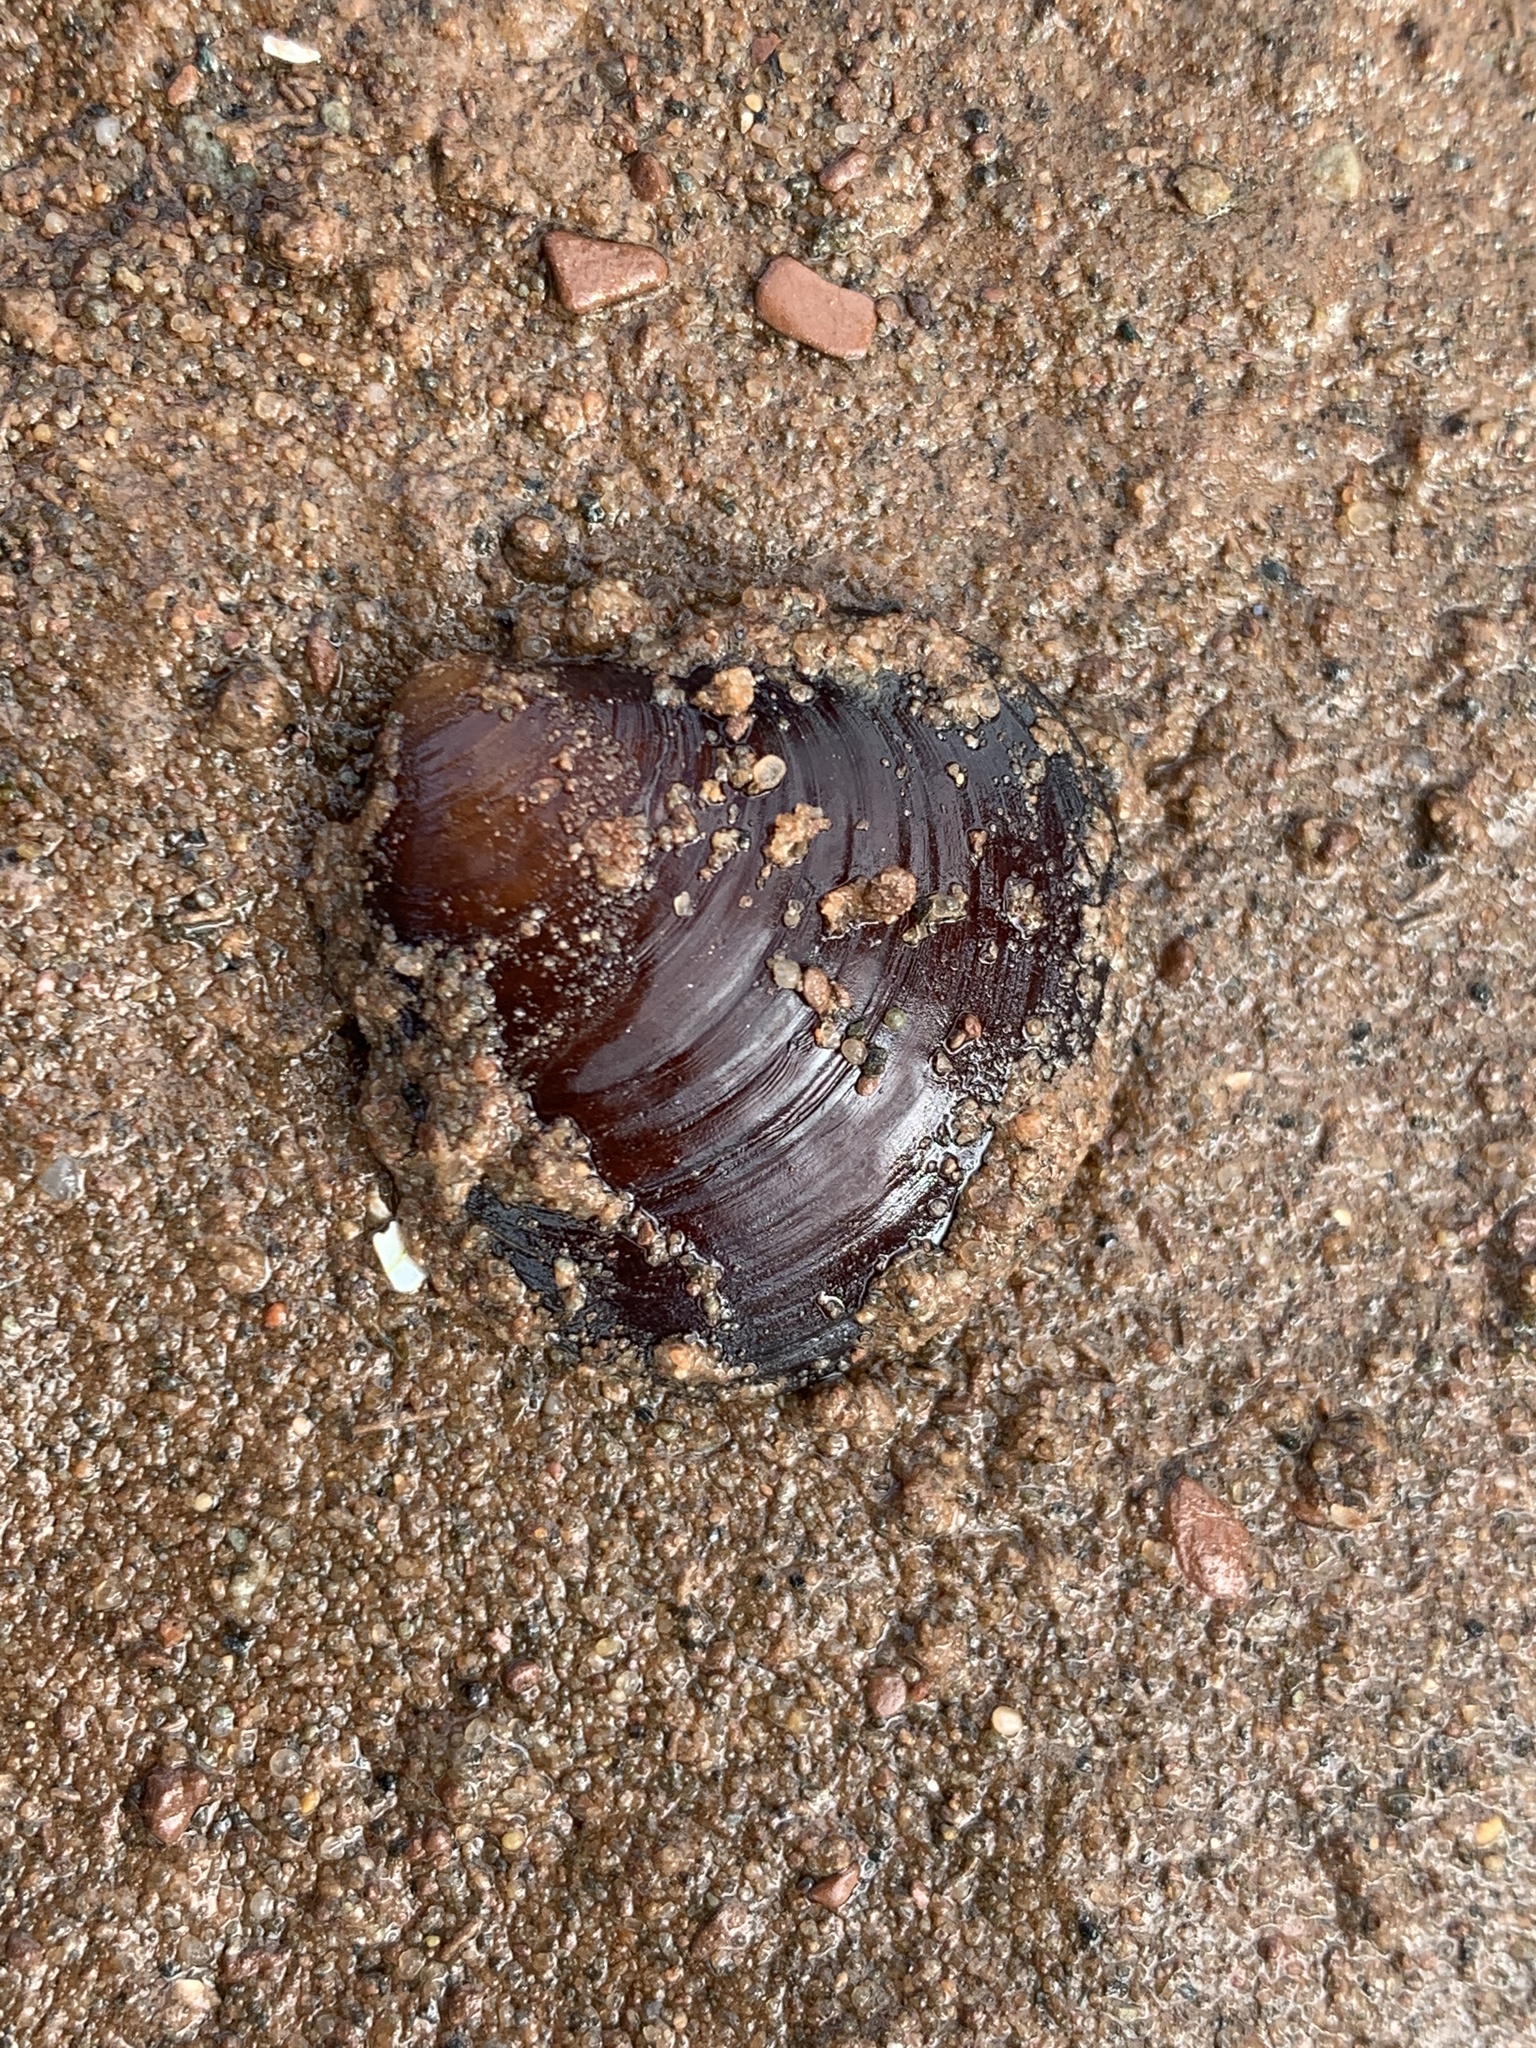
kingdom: Animalia
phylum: Mollusca
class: Bivalvia
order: Carditida
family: Astartidae
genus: Astarte
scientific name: Astarte undata
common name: Wavy astarte
